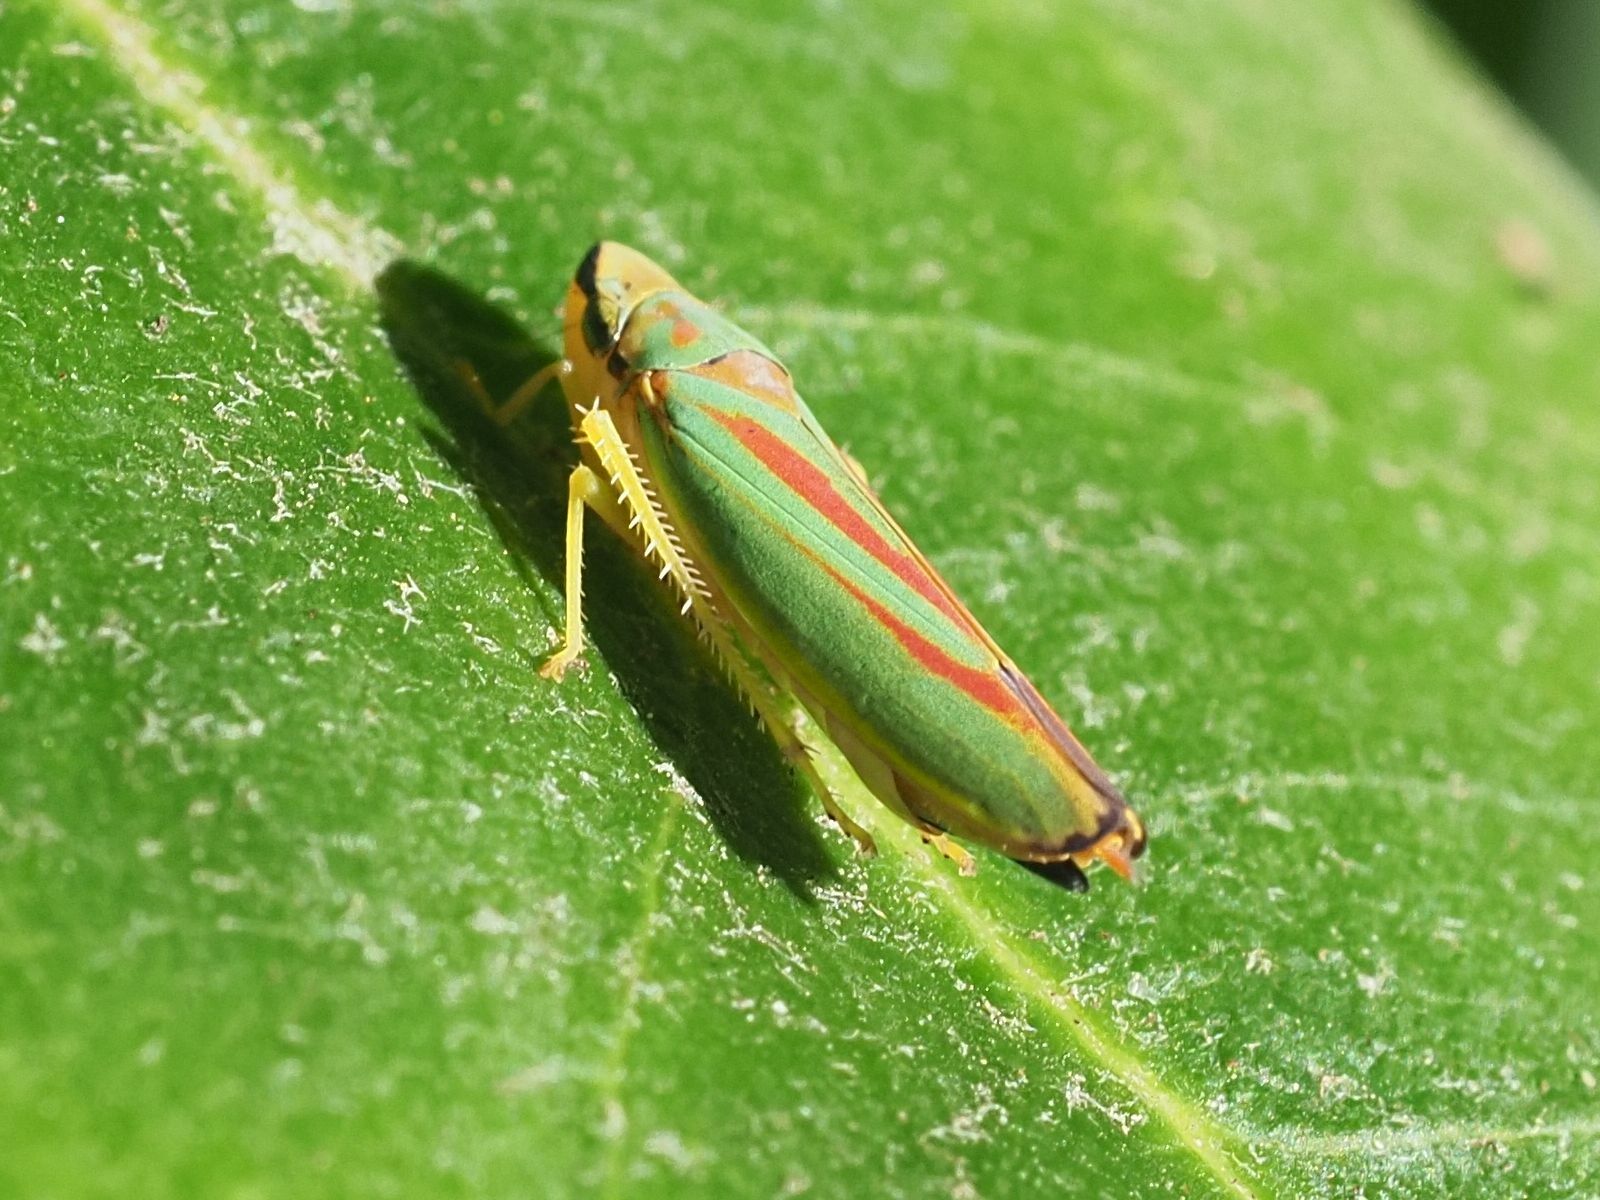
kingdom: Animalia
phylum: Arthropoda
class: Insecta
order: Hemiptera
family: Cicadellidae
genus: Graphocephala
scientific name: Graphocephala fennahi
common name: Rhododendron leafhopper
